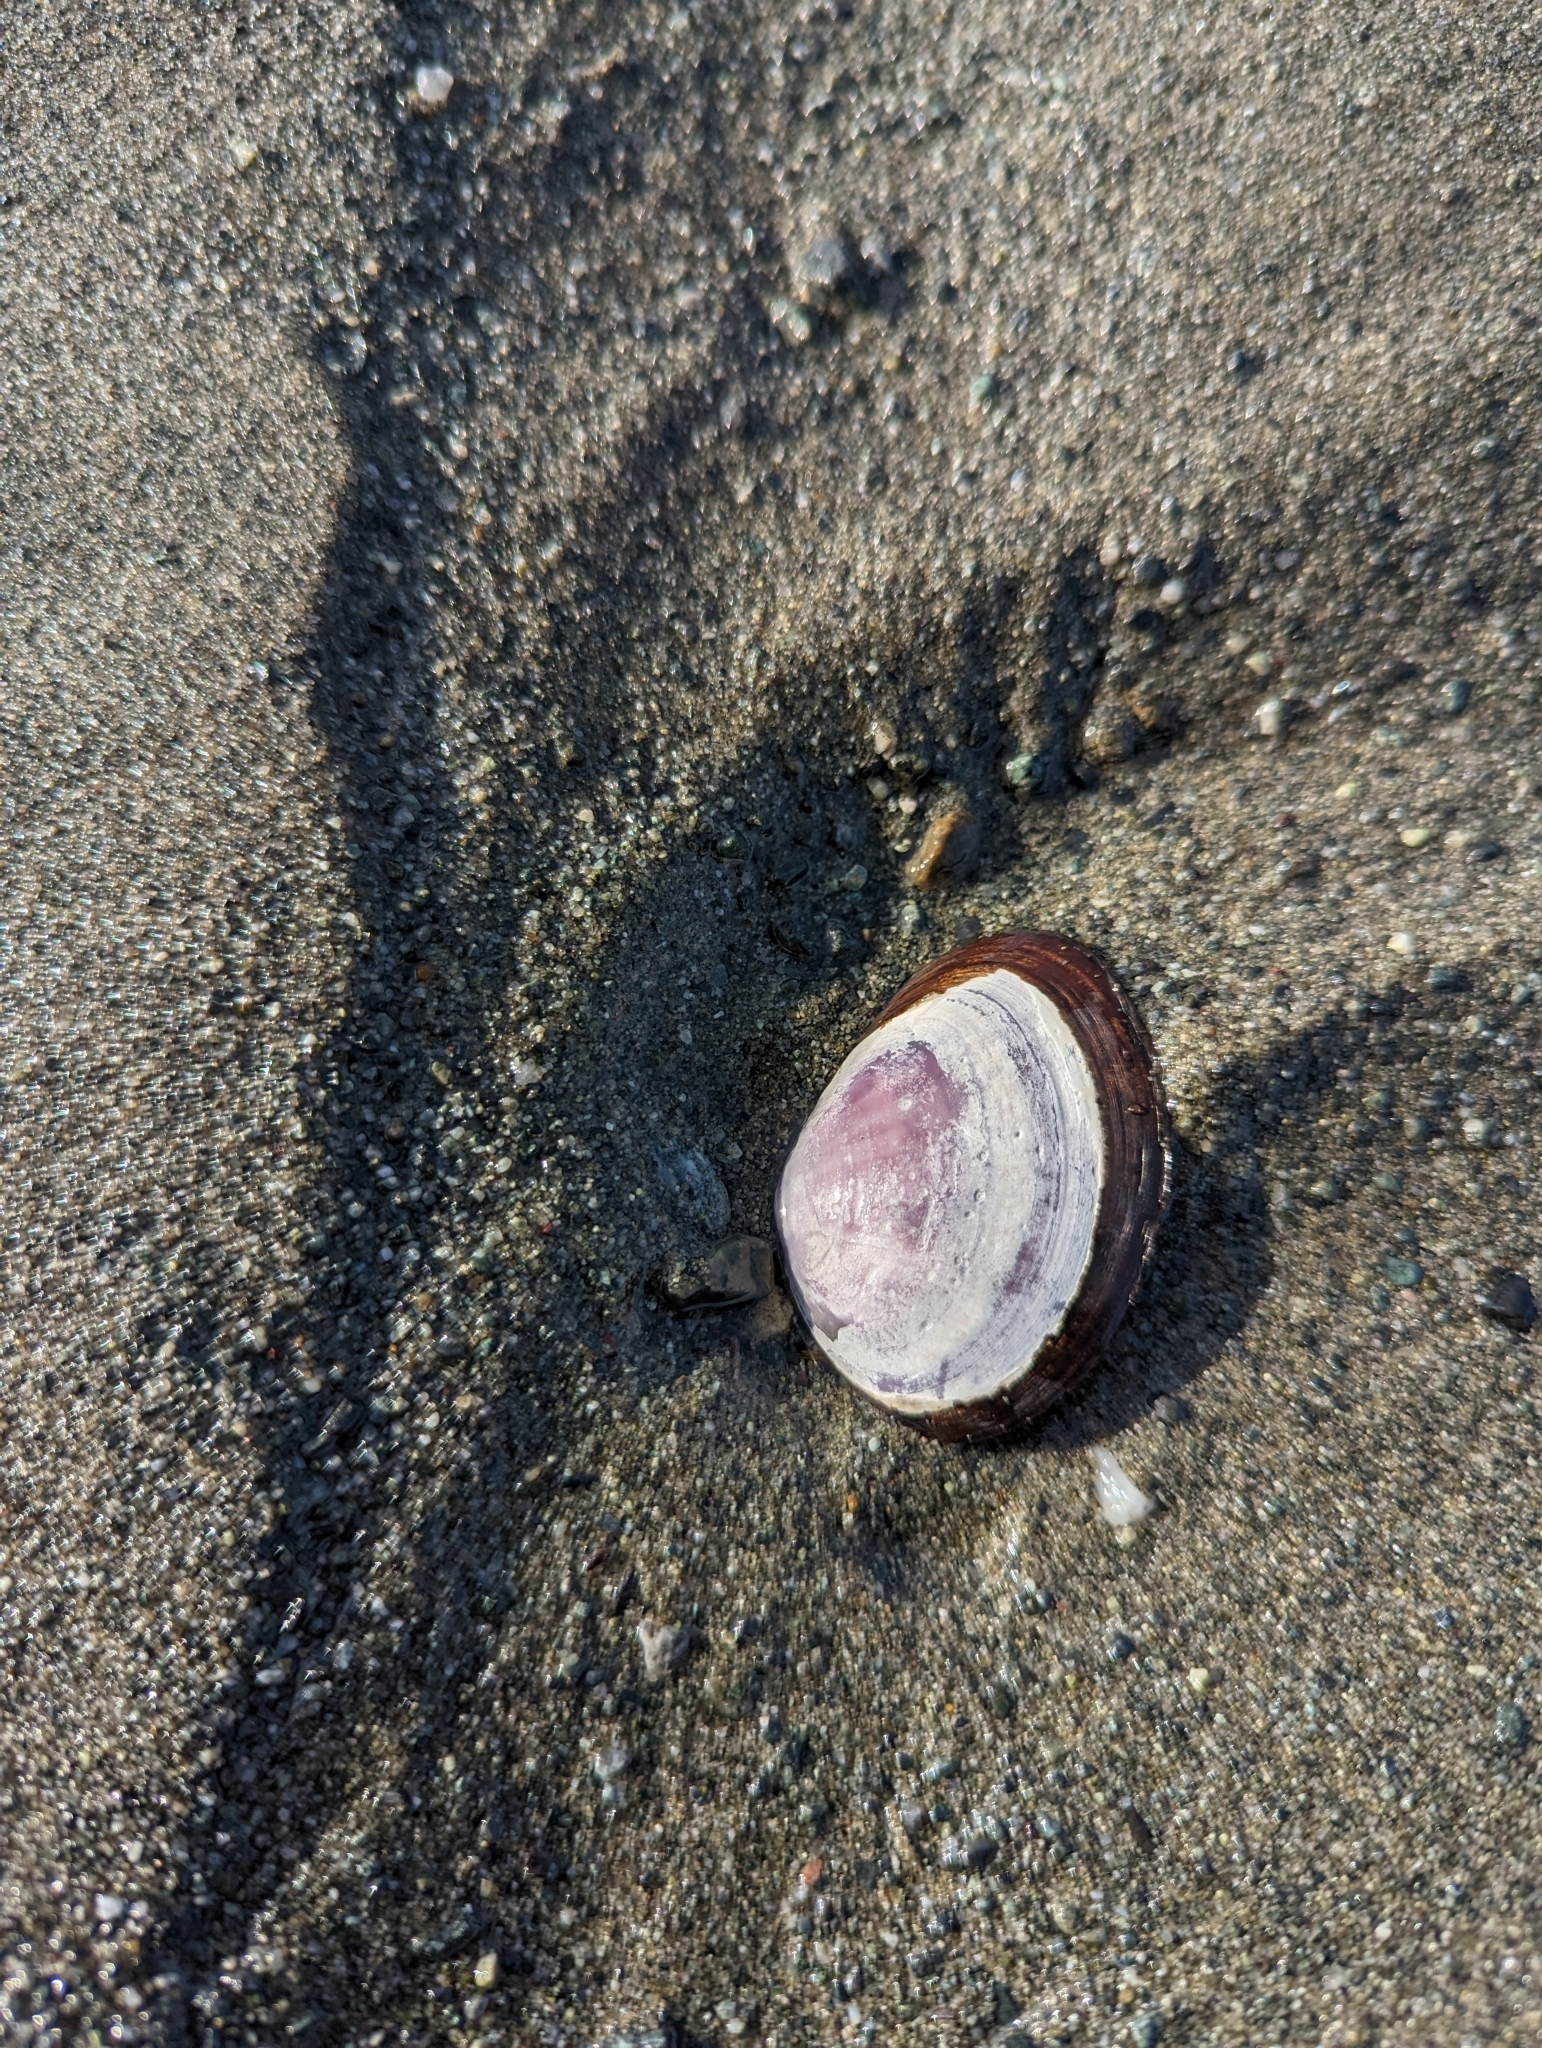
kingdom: Animalia
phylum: Mollusca
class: Bivalvia
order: Cardiida
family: Psammobiidae
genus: Nuttallia
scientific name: Nuttallia obscurata
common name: Purple mahogany-clam
